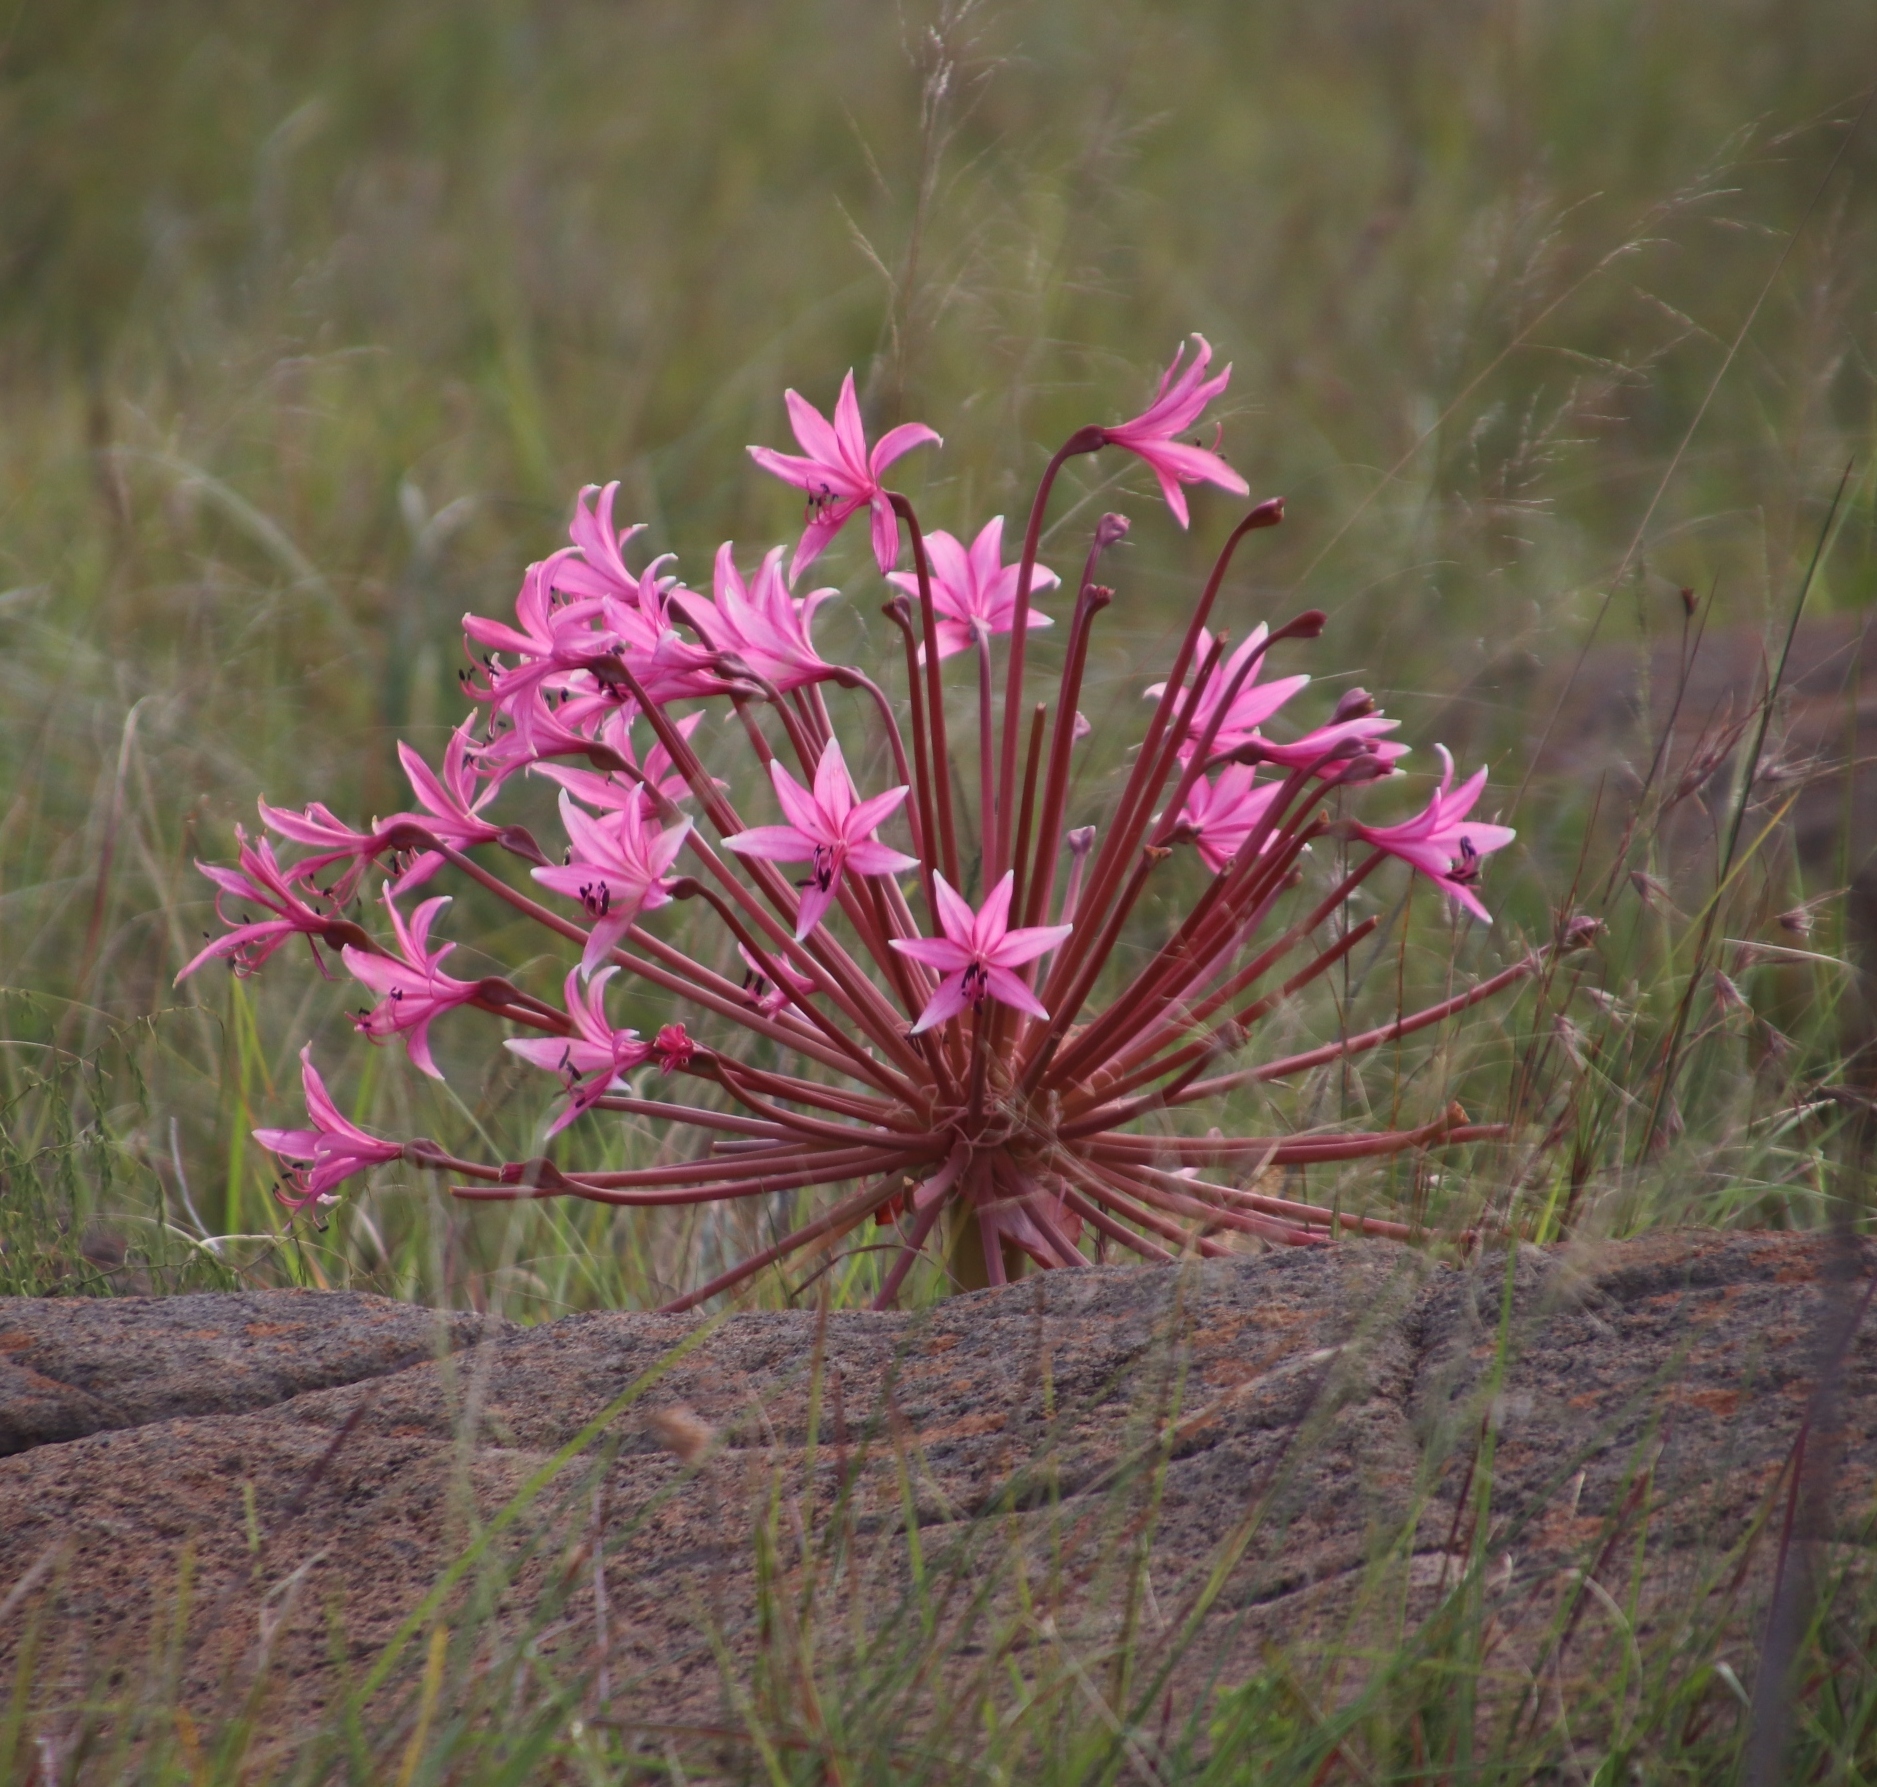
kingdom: Plantae
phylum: Tracheophyta
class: Liliopsida
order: Asparagales
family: Amaryllidaceae
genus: Brunsvigia
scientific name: Brunsvigia radulosa
